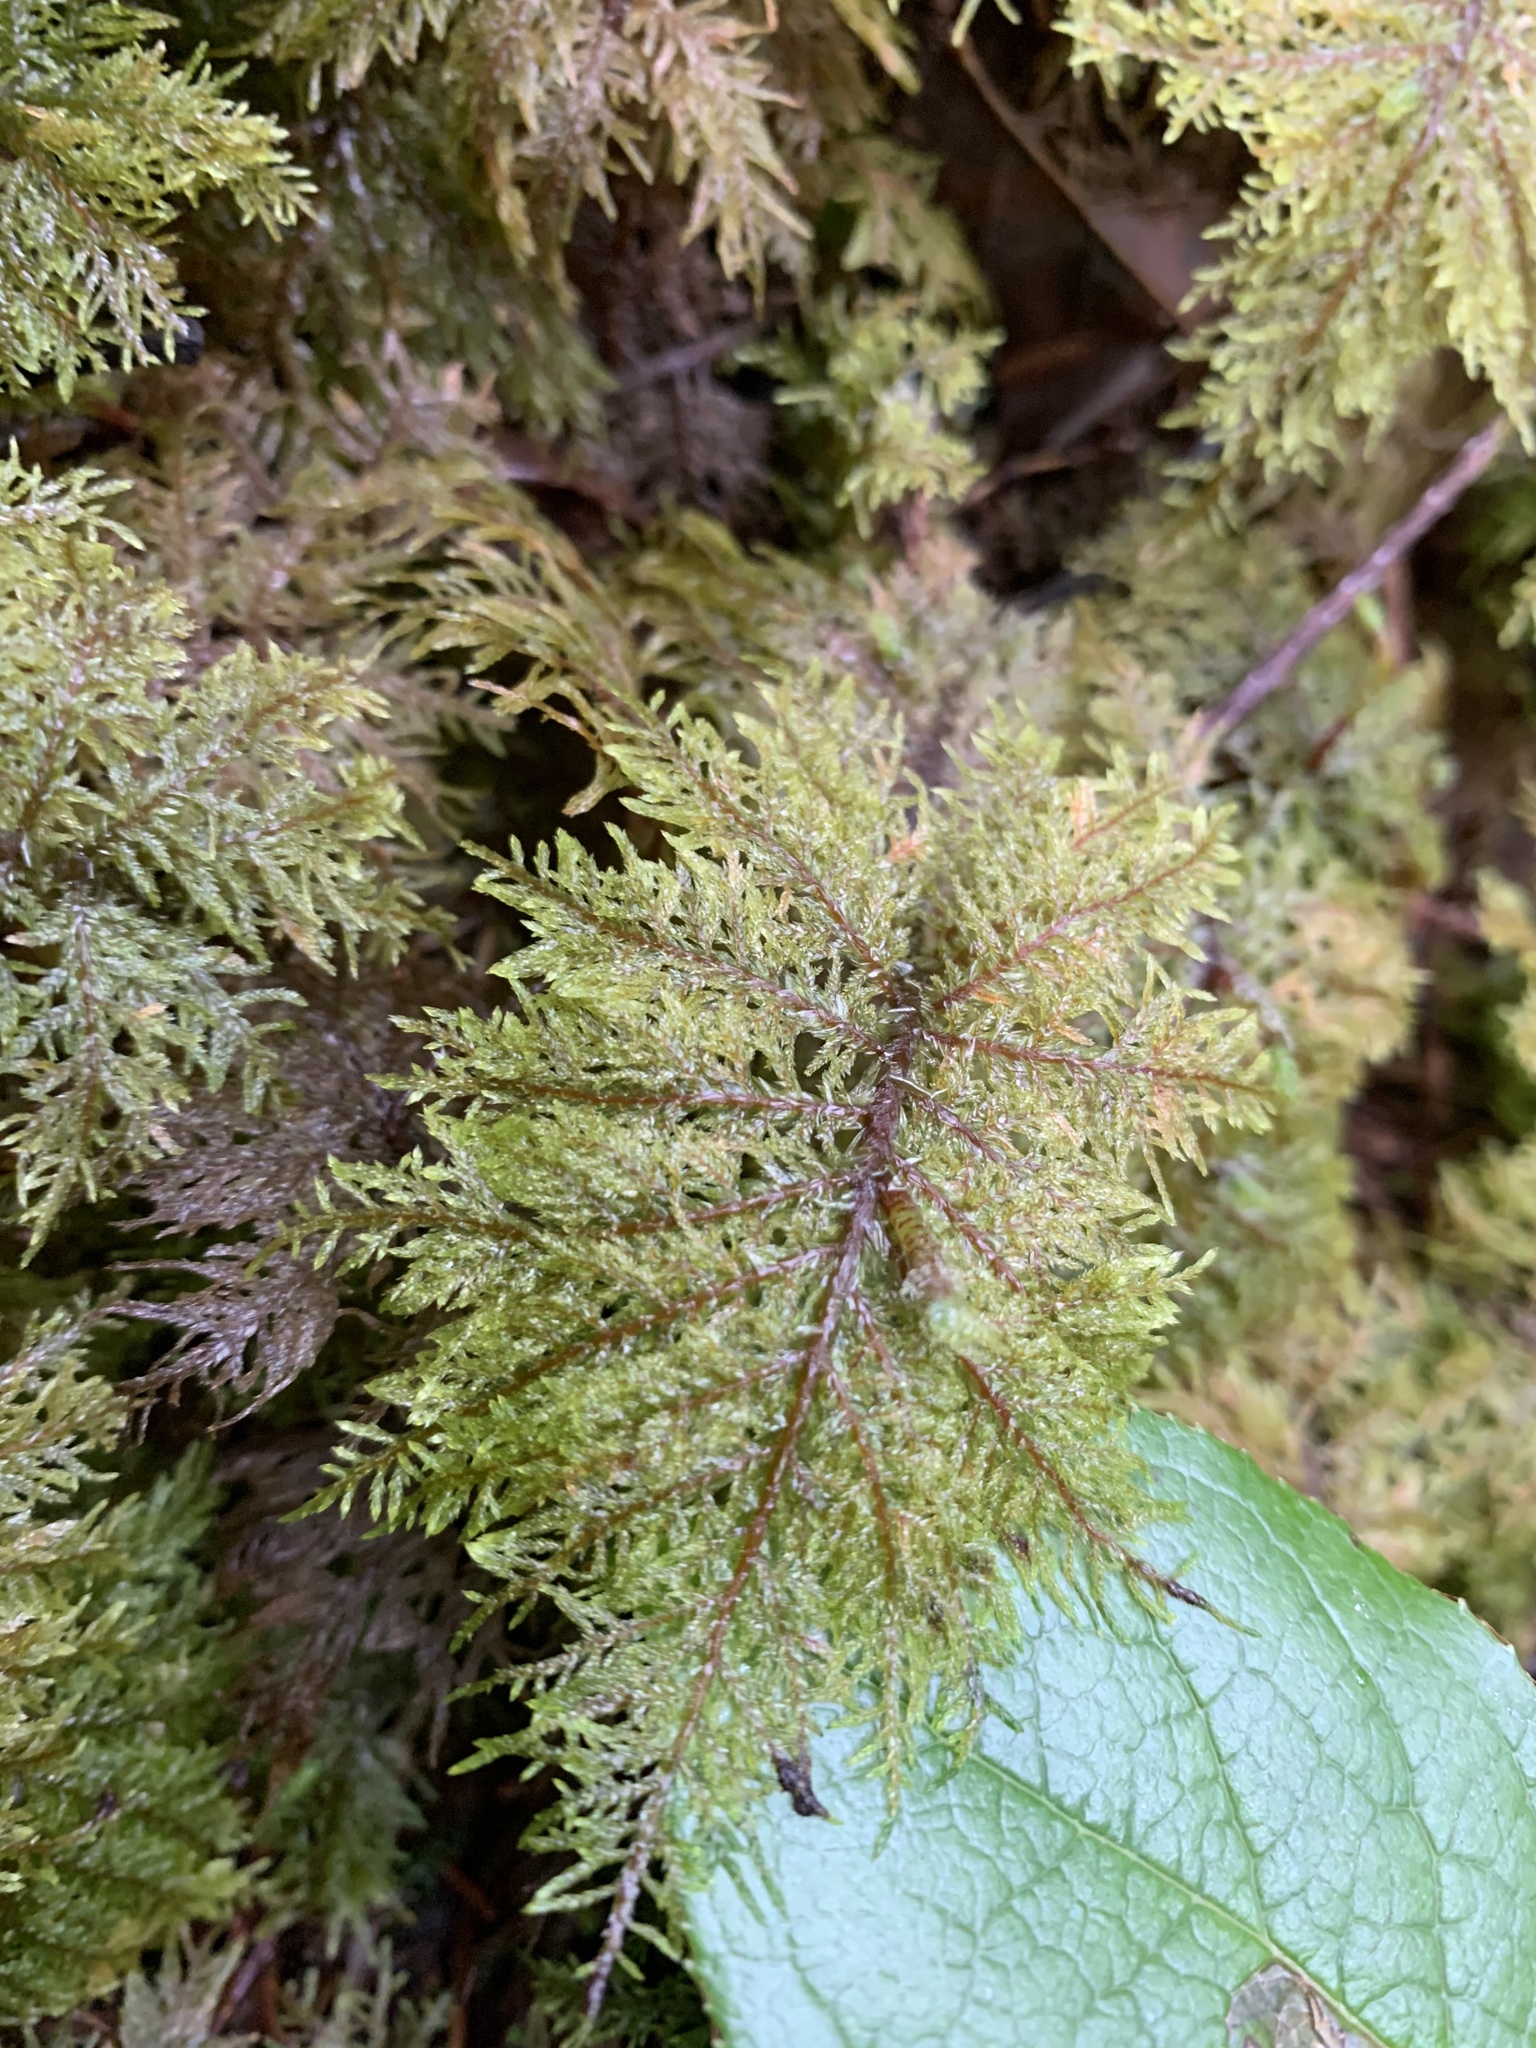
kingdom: Plantae
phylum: Bryophyta
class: Bryopsida
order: Hypnales
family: Hylocomiaceae
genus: Hylocomium
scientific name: Hylocomium splendens
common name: Stairstep moss
